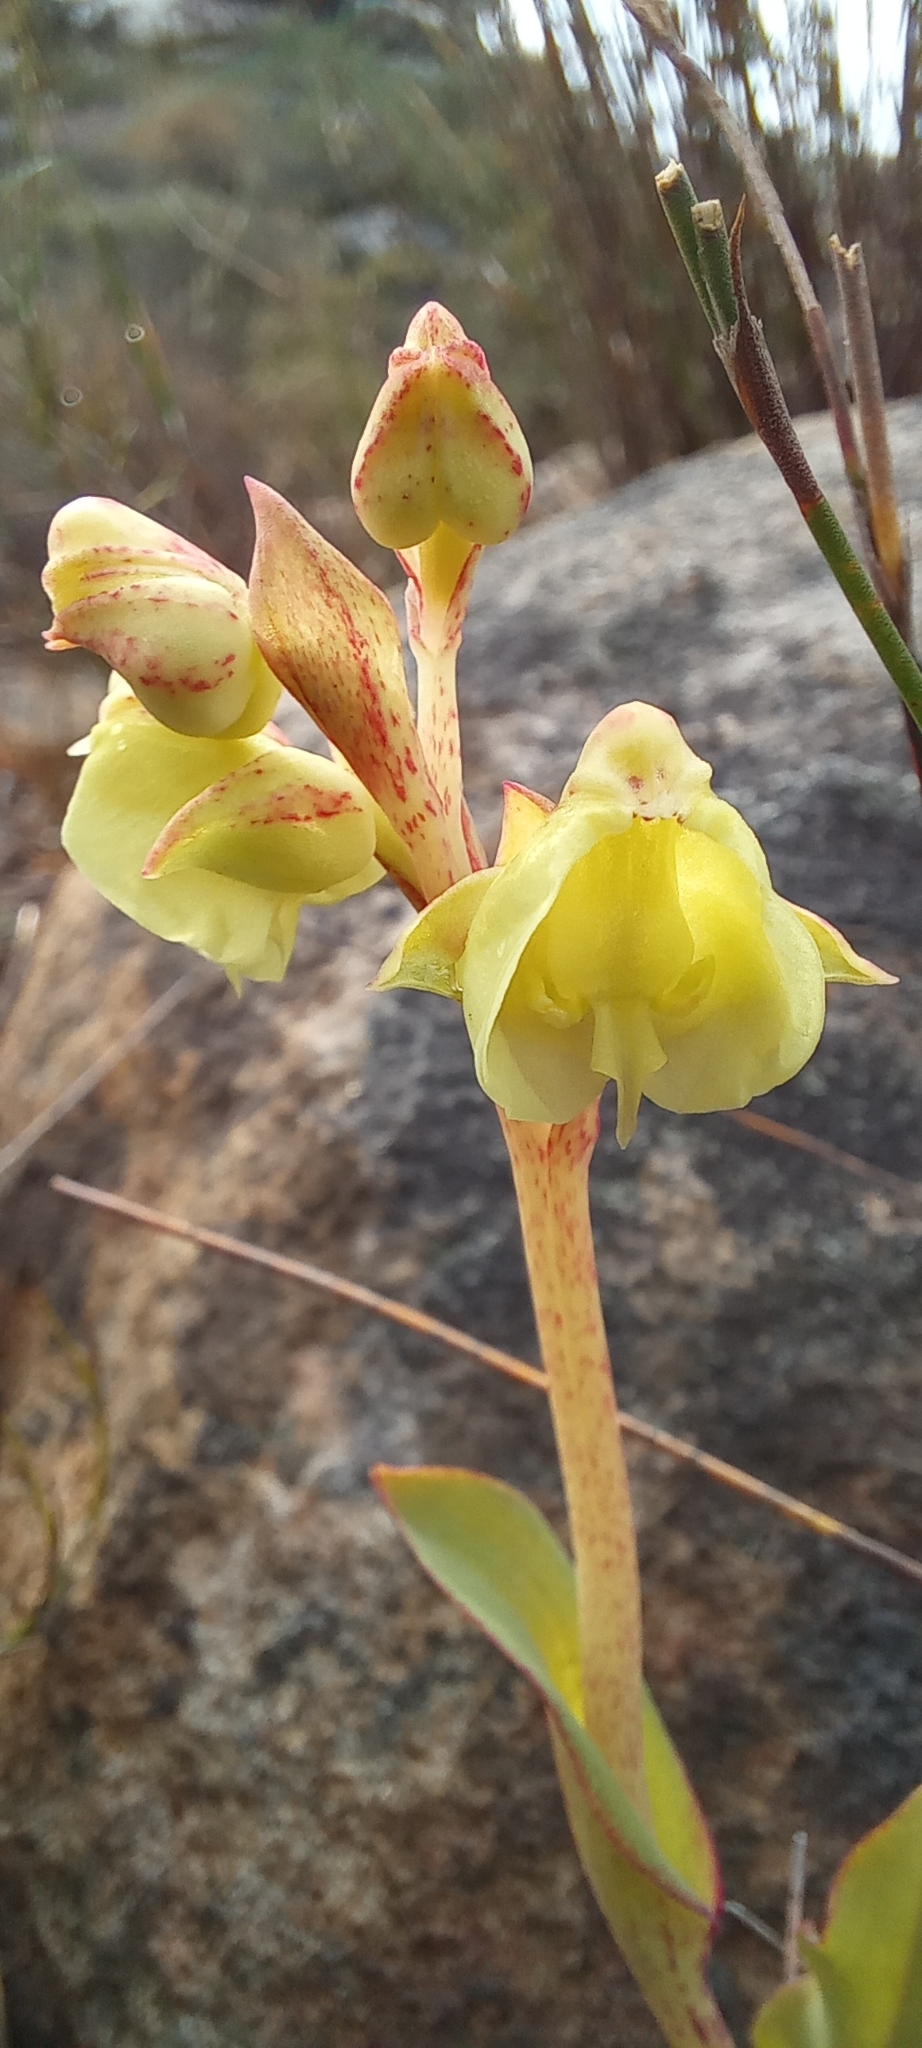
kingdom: Plantae
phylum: Tracheophyta
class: Liliopsida
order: Asparagales
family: Orchidaceae
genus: Pterygodium
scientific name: Pterygodium catholicum
